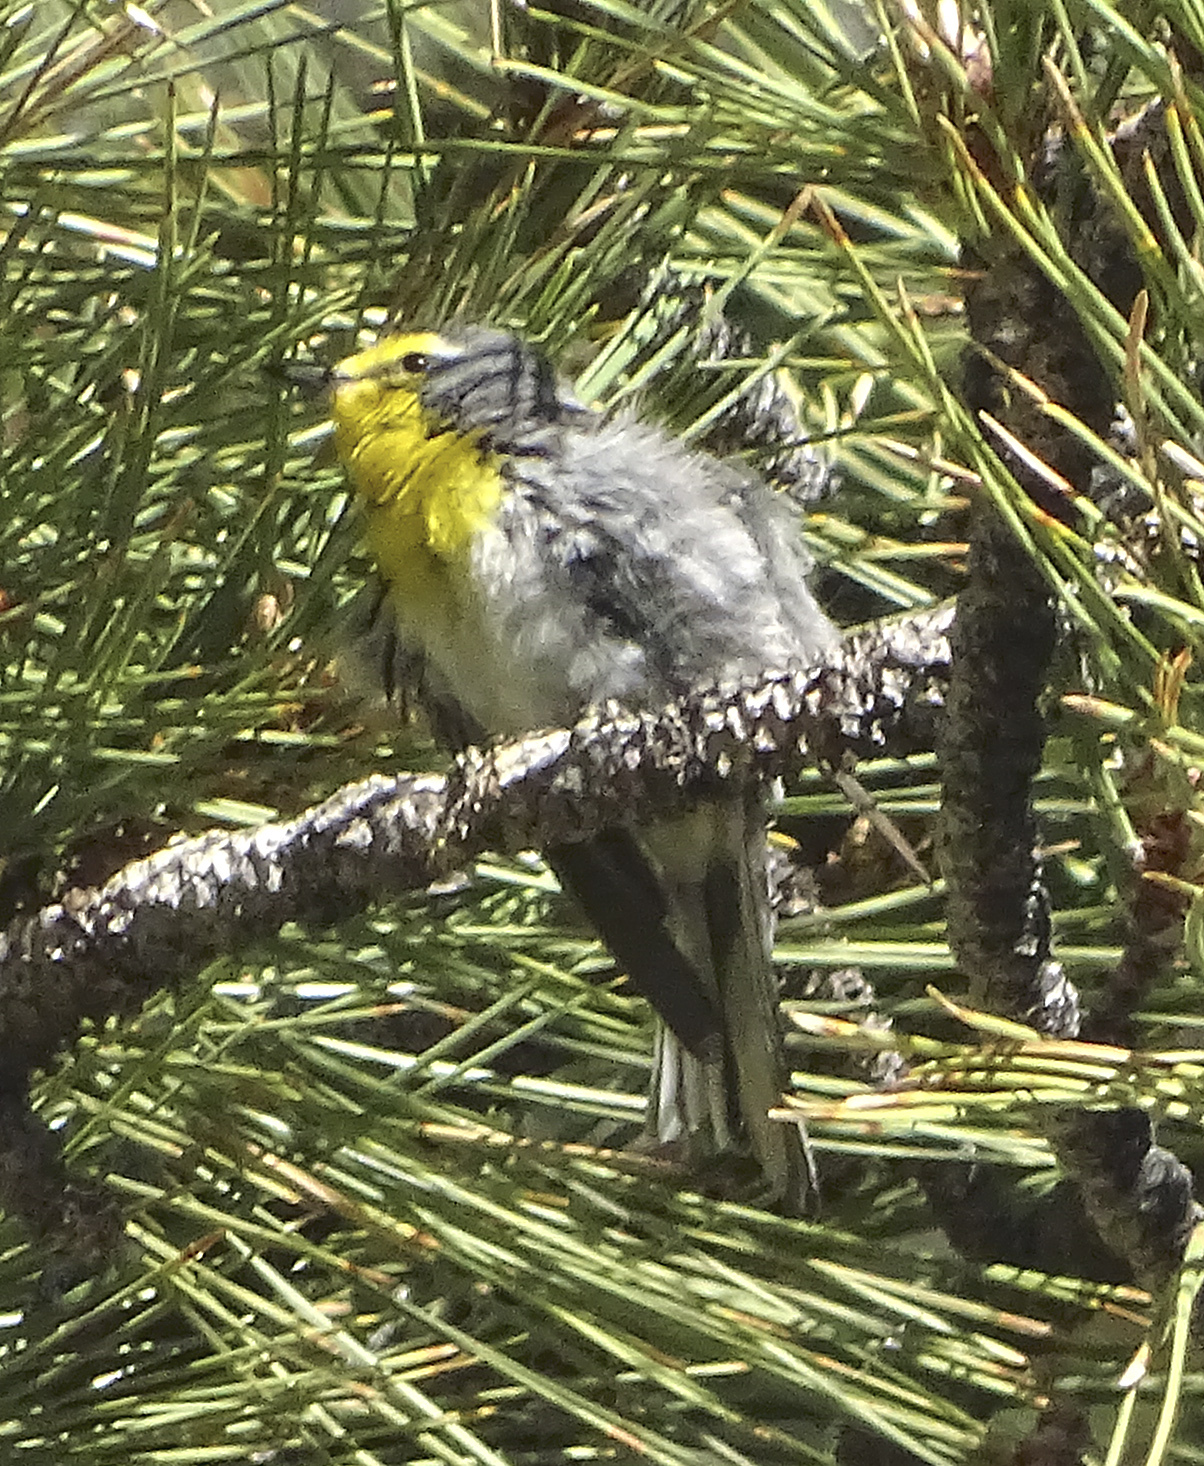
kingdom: Animalia
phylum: Chordata
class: Aves
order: Passeriformes
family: Parulidae
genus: Setophaga
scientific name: Setophaga graciae
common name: Grace's warbler
